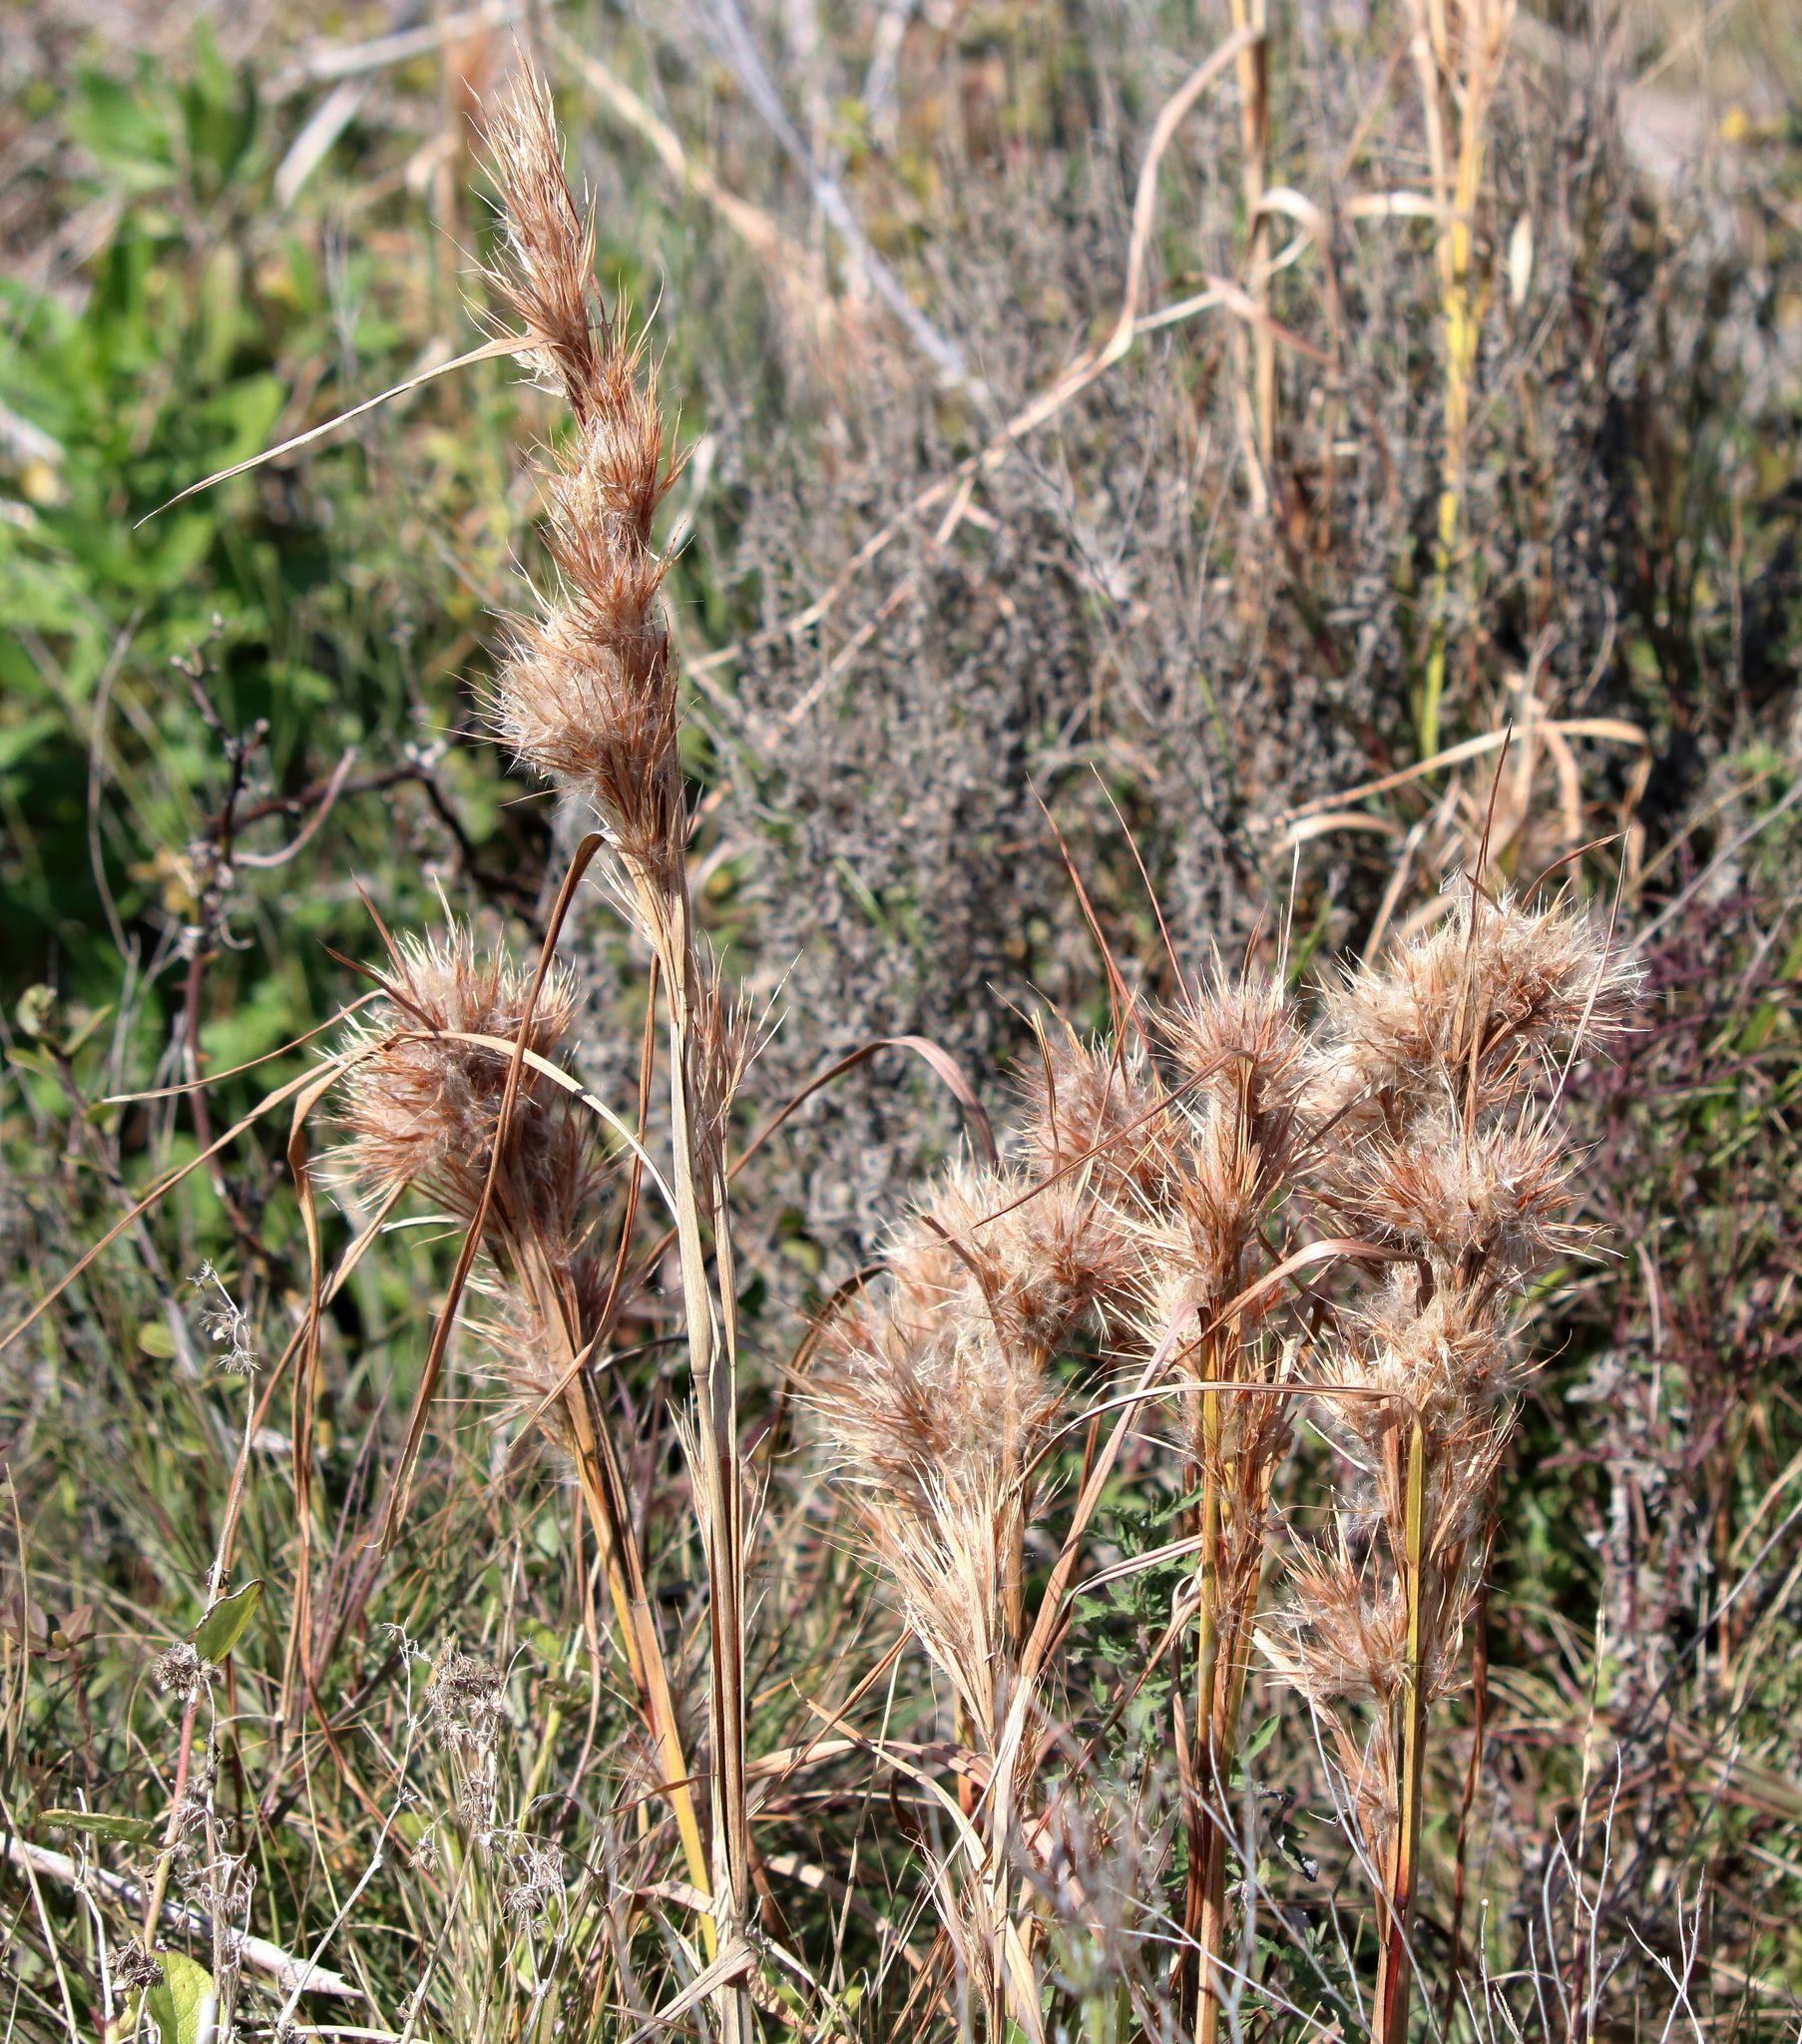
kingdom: Plantae
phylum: Tracheophyta
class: Liliopsida
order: Poales
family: Poaceae
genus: Andropogon
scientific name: Andropogon tenuispatheus
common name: Bushy bluestem
